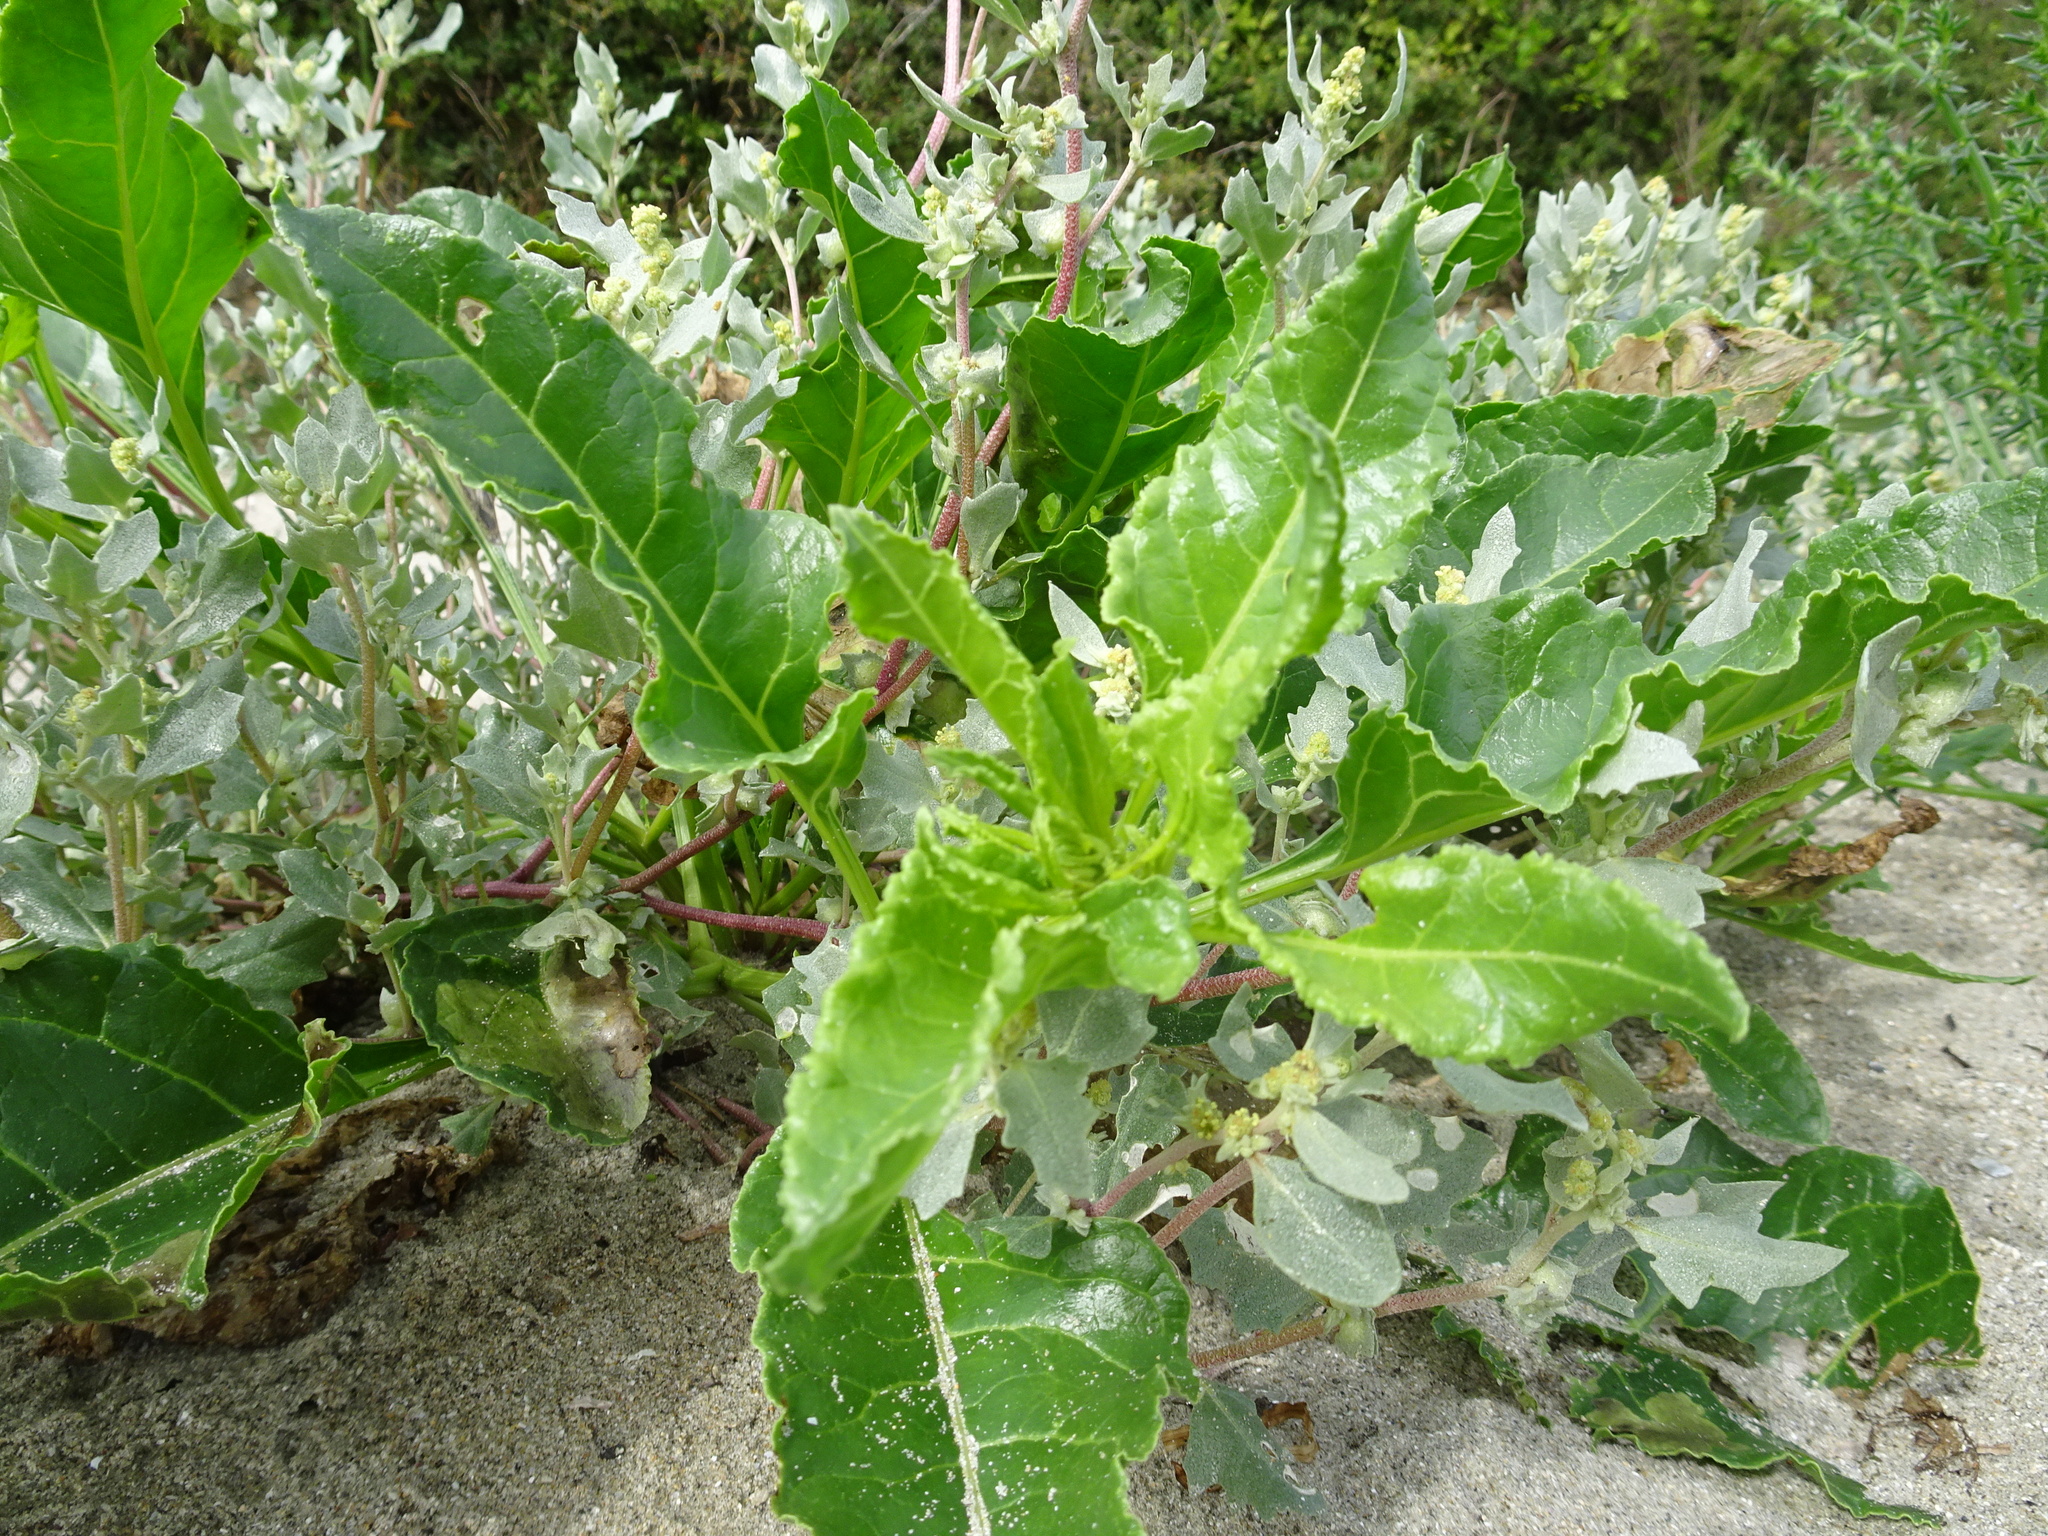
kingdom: Plantae
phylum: Tracheophyta
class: Magnoliopsida
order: Caryophyllales
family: Amaranthaceae
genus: Beta
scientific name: Beta vulgaris
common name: Beet
